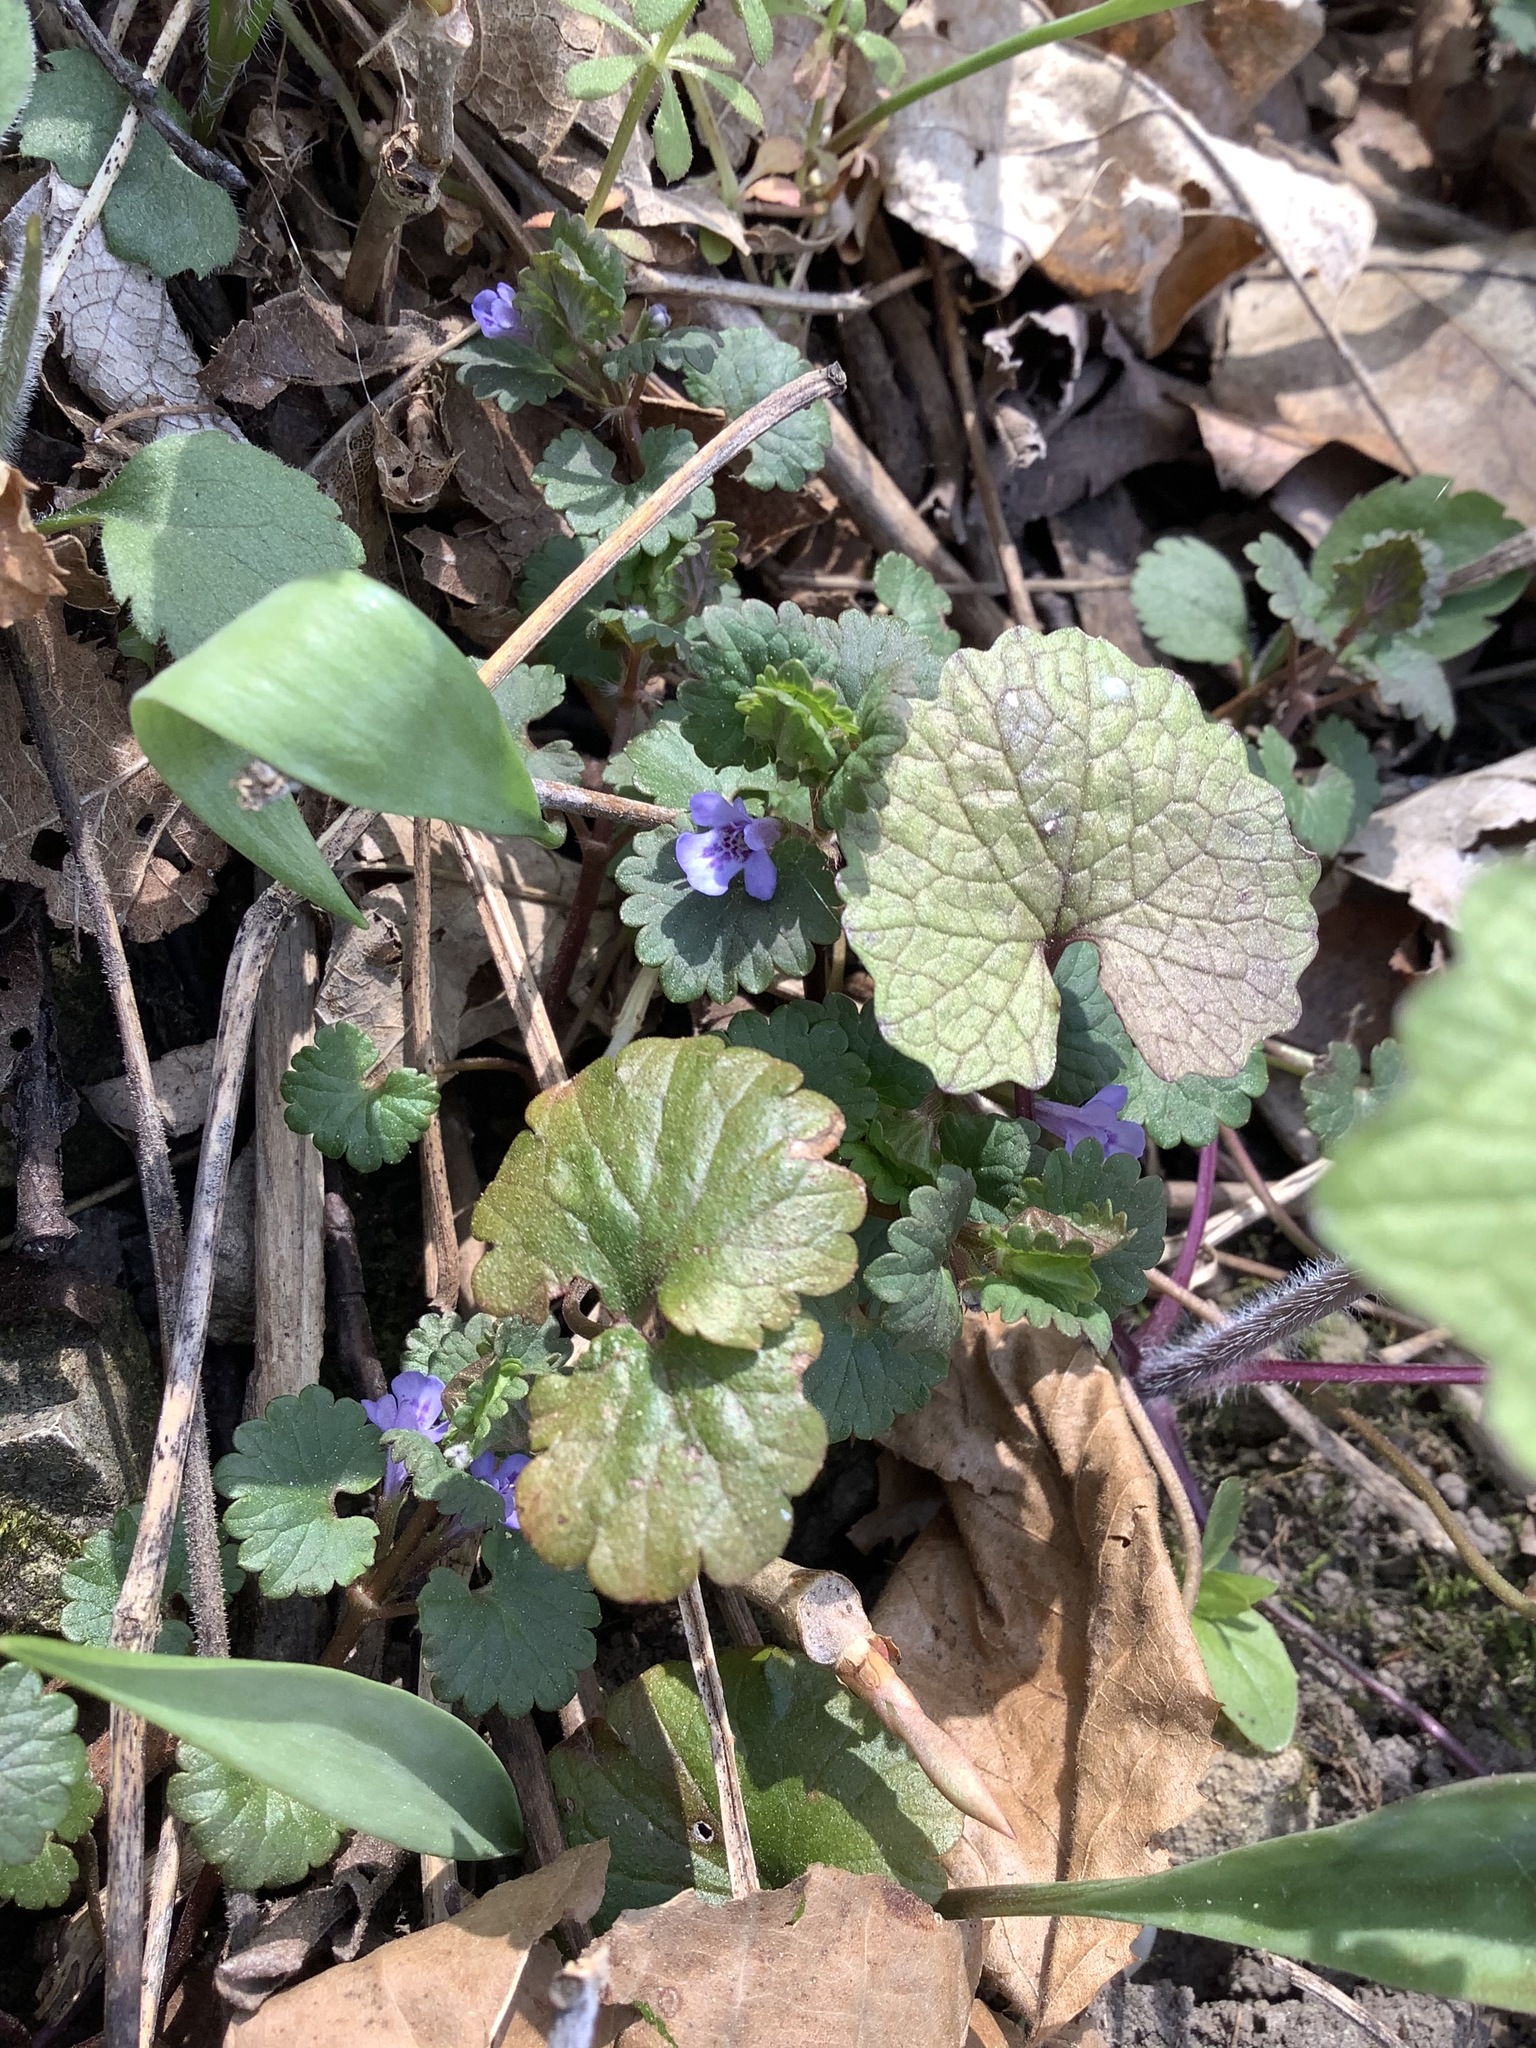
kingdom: Plantae
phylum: Tracheophyta
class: Magnoliopsida
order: Lamiales
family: Lamiaceae
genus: Glechoma
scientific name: Glechoma hederacea
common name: Ground ivy
